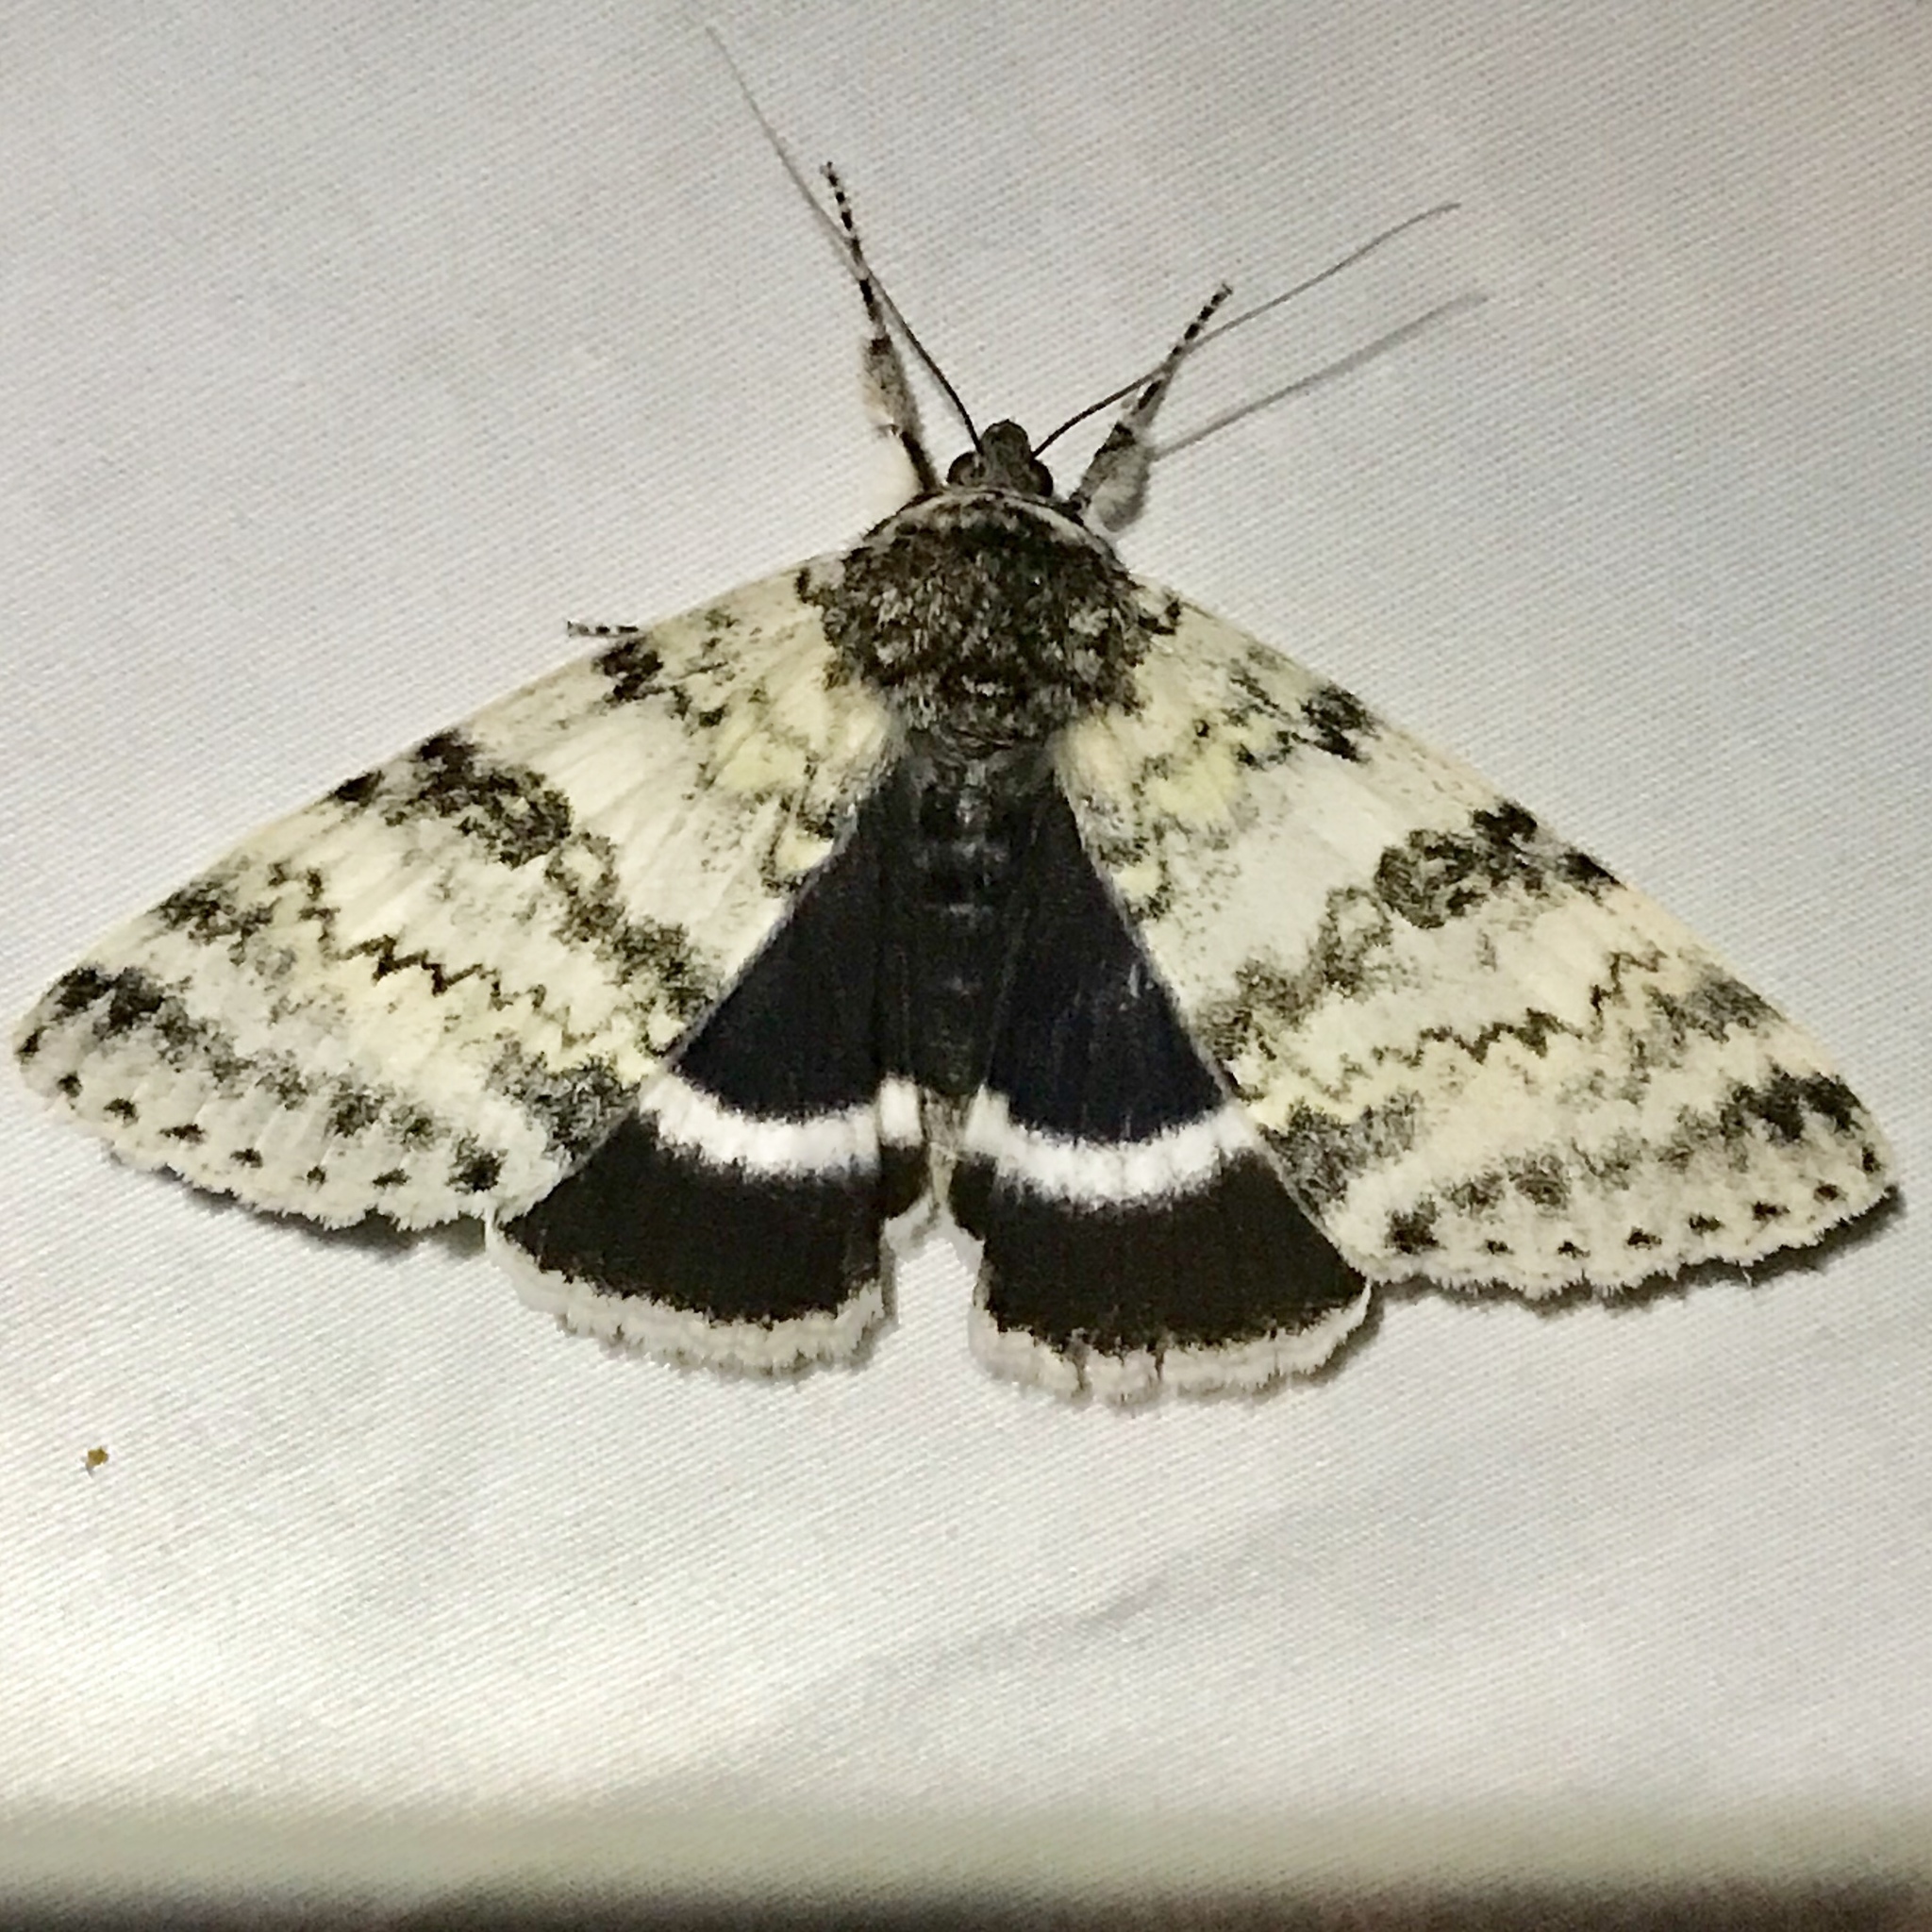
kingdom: Animalia
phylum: Arthropoda
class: Insecta
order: Lepidoptera
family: Erebidae
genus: Catocala
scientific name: Catocala relicta
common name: White underwing
